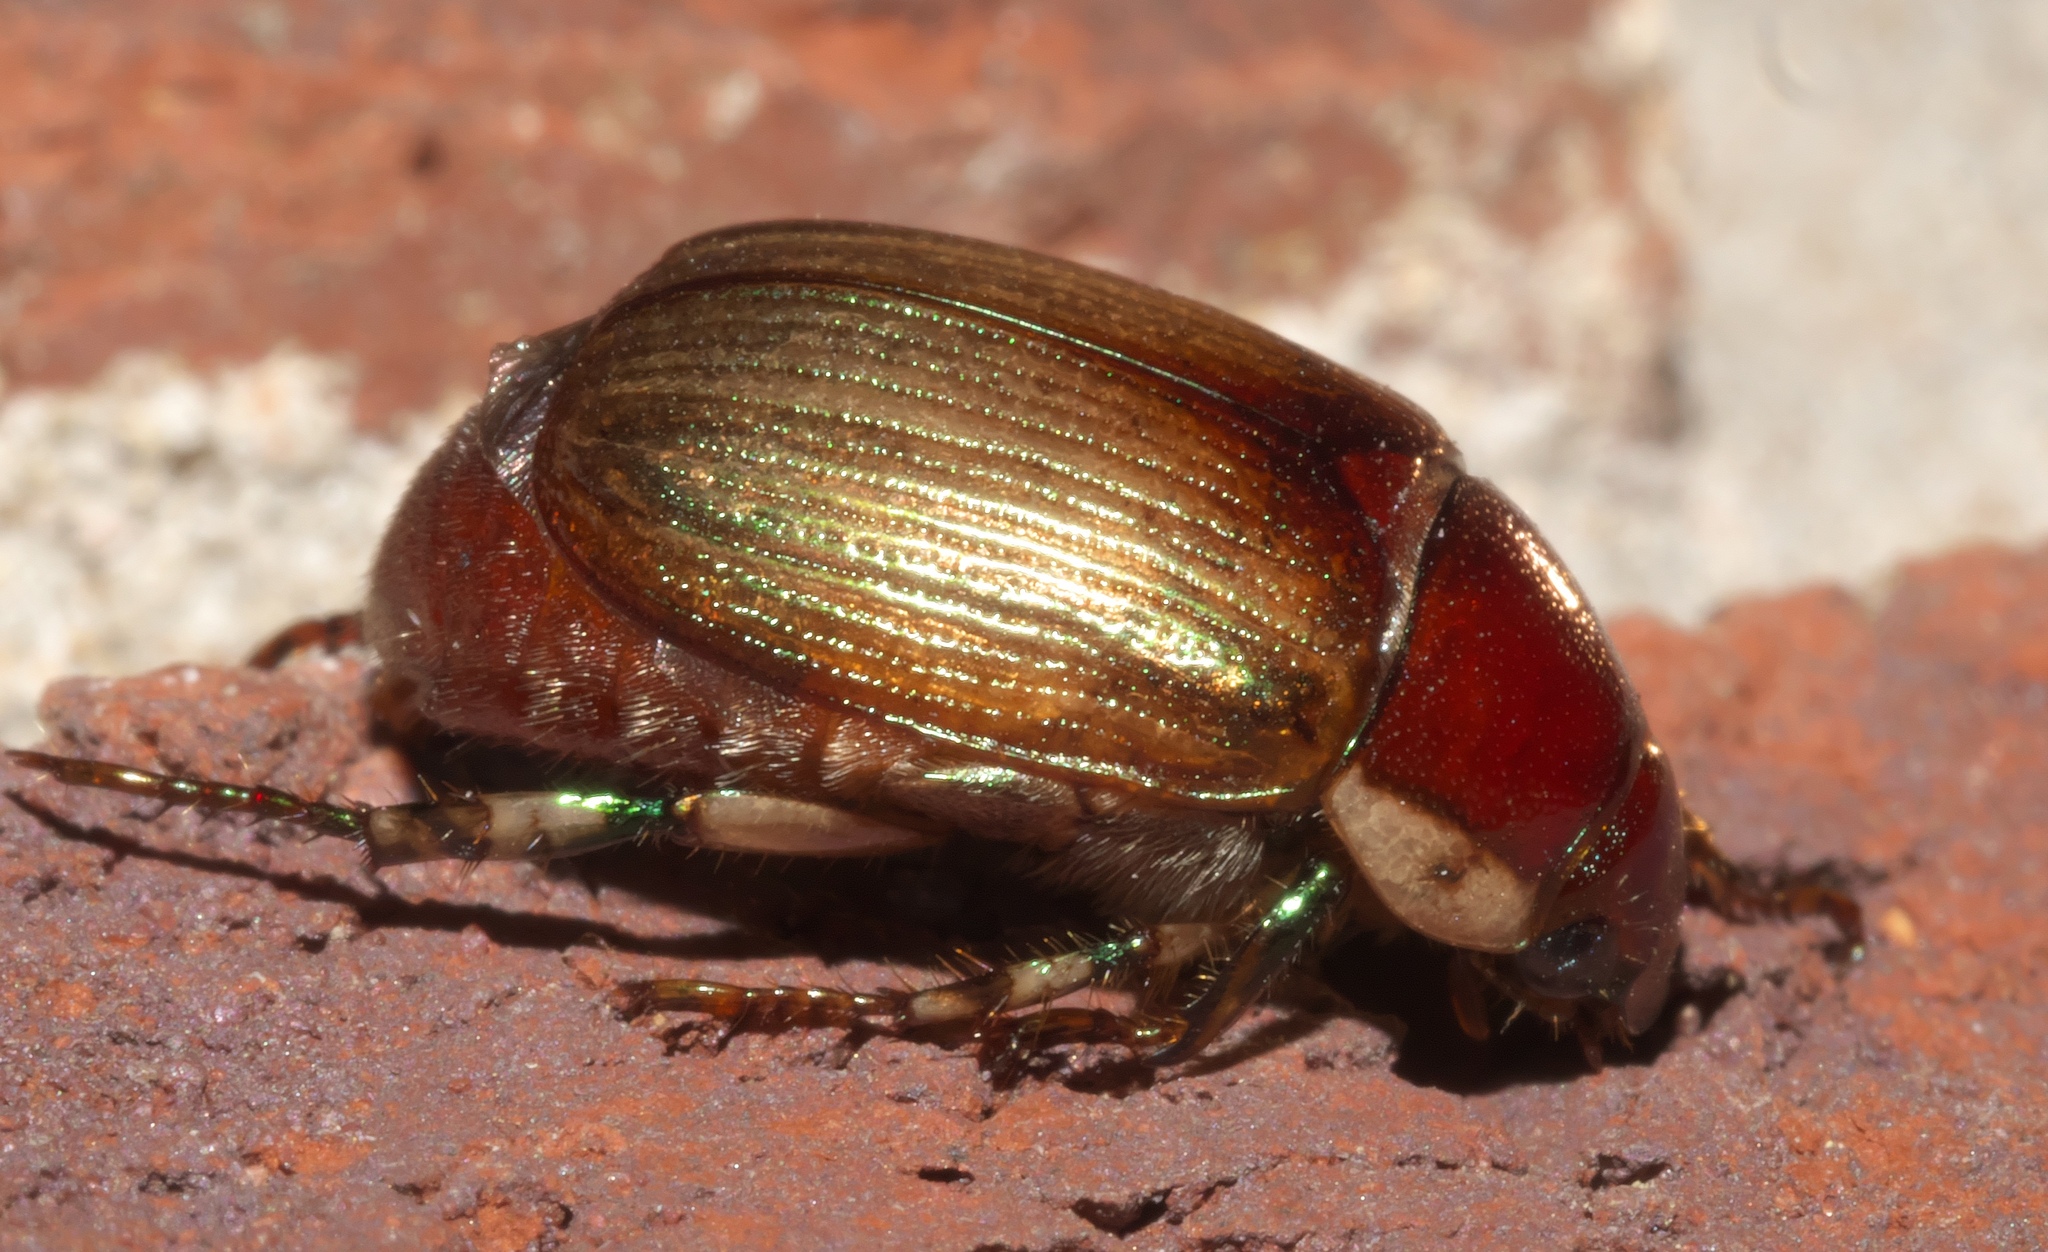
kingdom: Animalia
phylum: Arthropoda
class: Insecta
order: Coleoptera
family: Scarabaeidae
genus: Callistethus
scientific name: Callistethus marginatus
